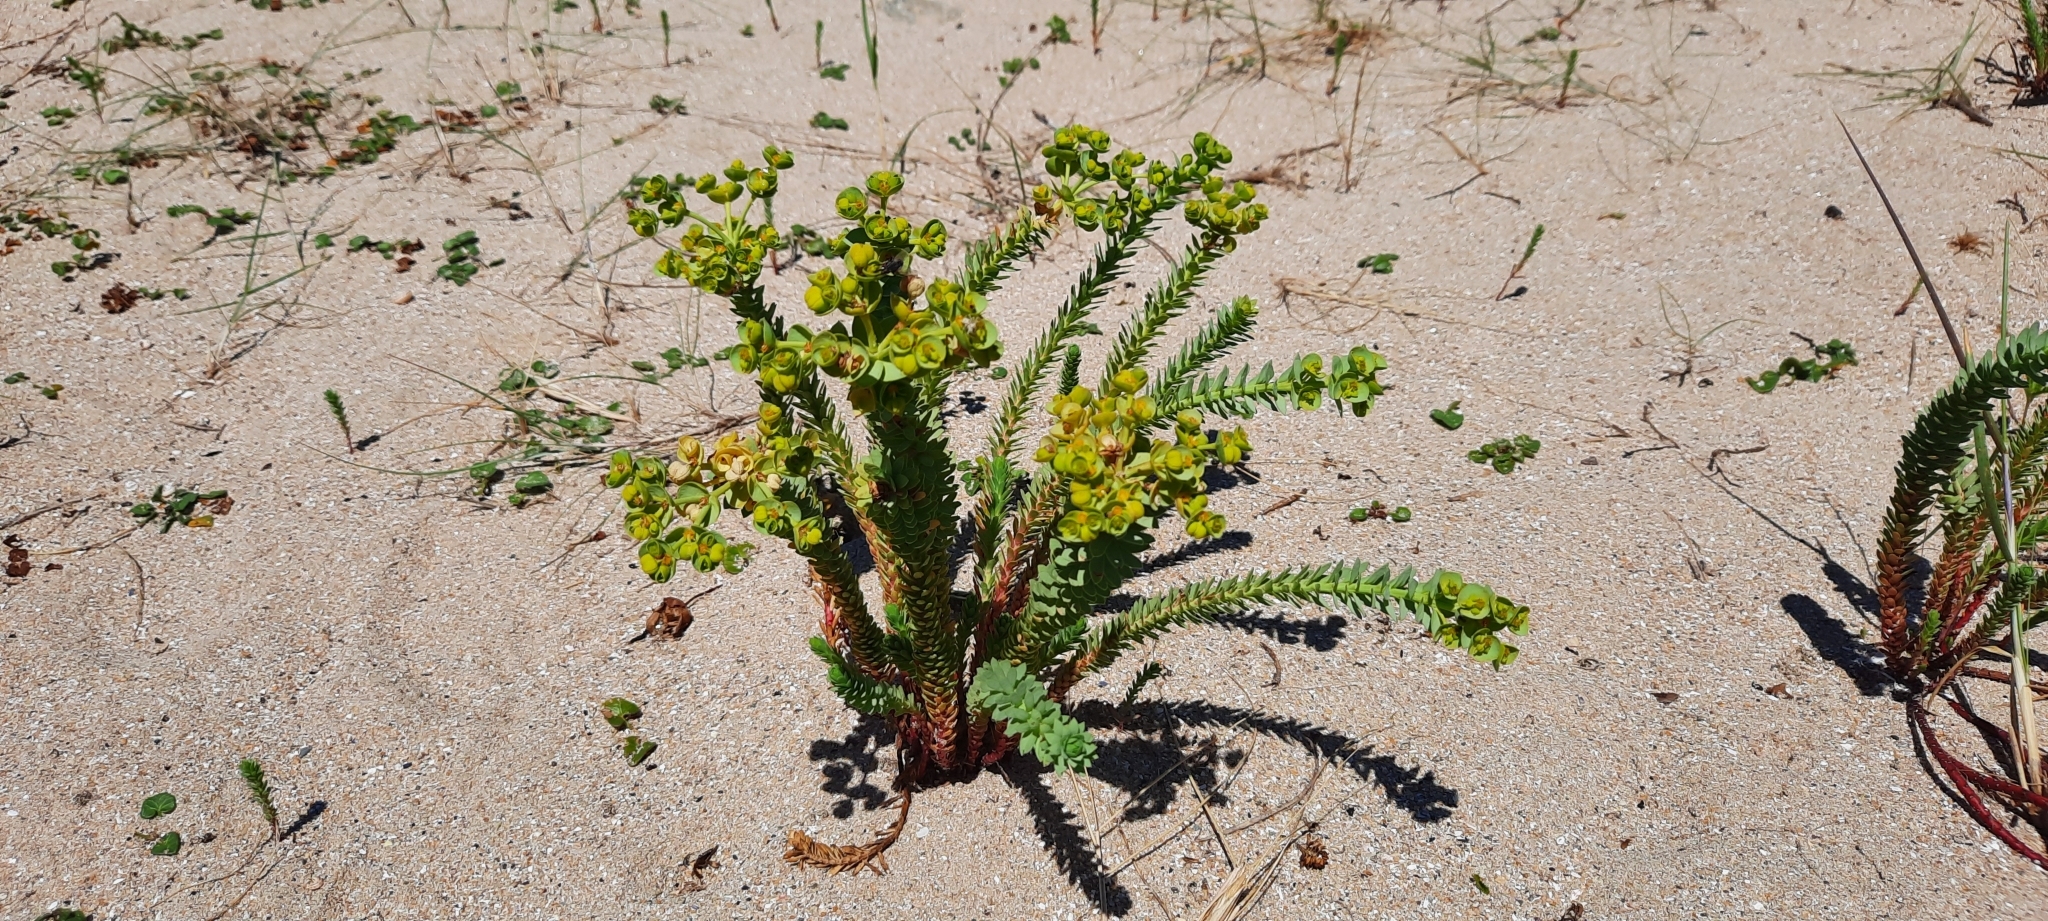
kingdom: Plantae
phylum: Tracheophyta
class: Magnoliopsida
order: Malpighiales
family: Euphorbiaceae
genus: Euphorbia
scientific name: Euphorbia paralias
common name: Sea spurge
